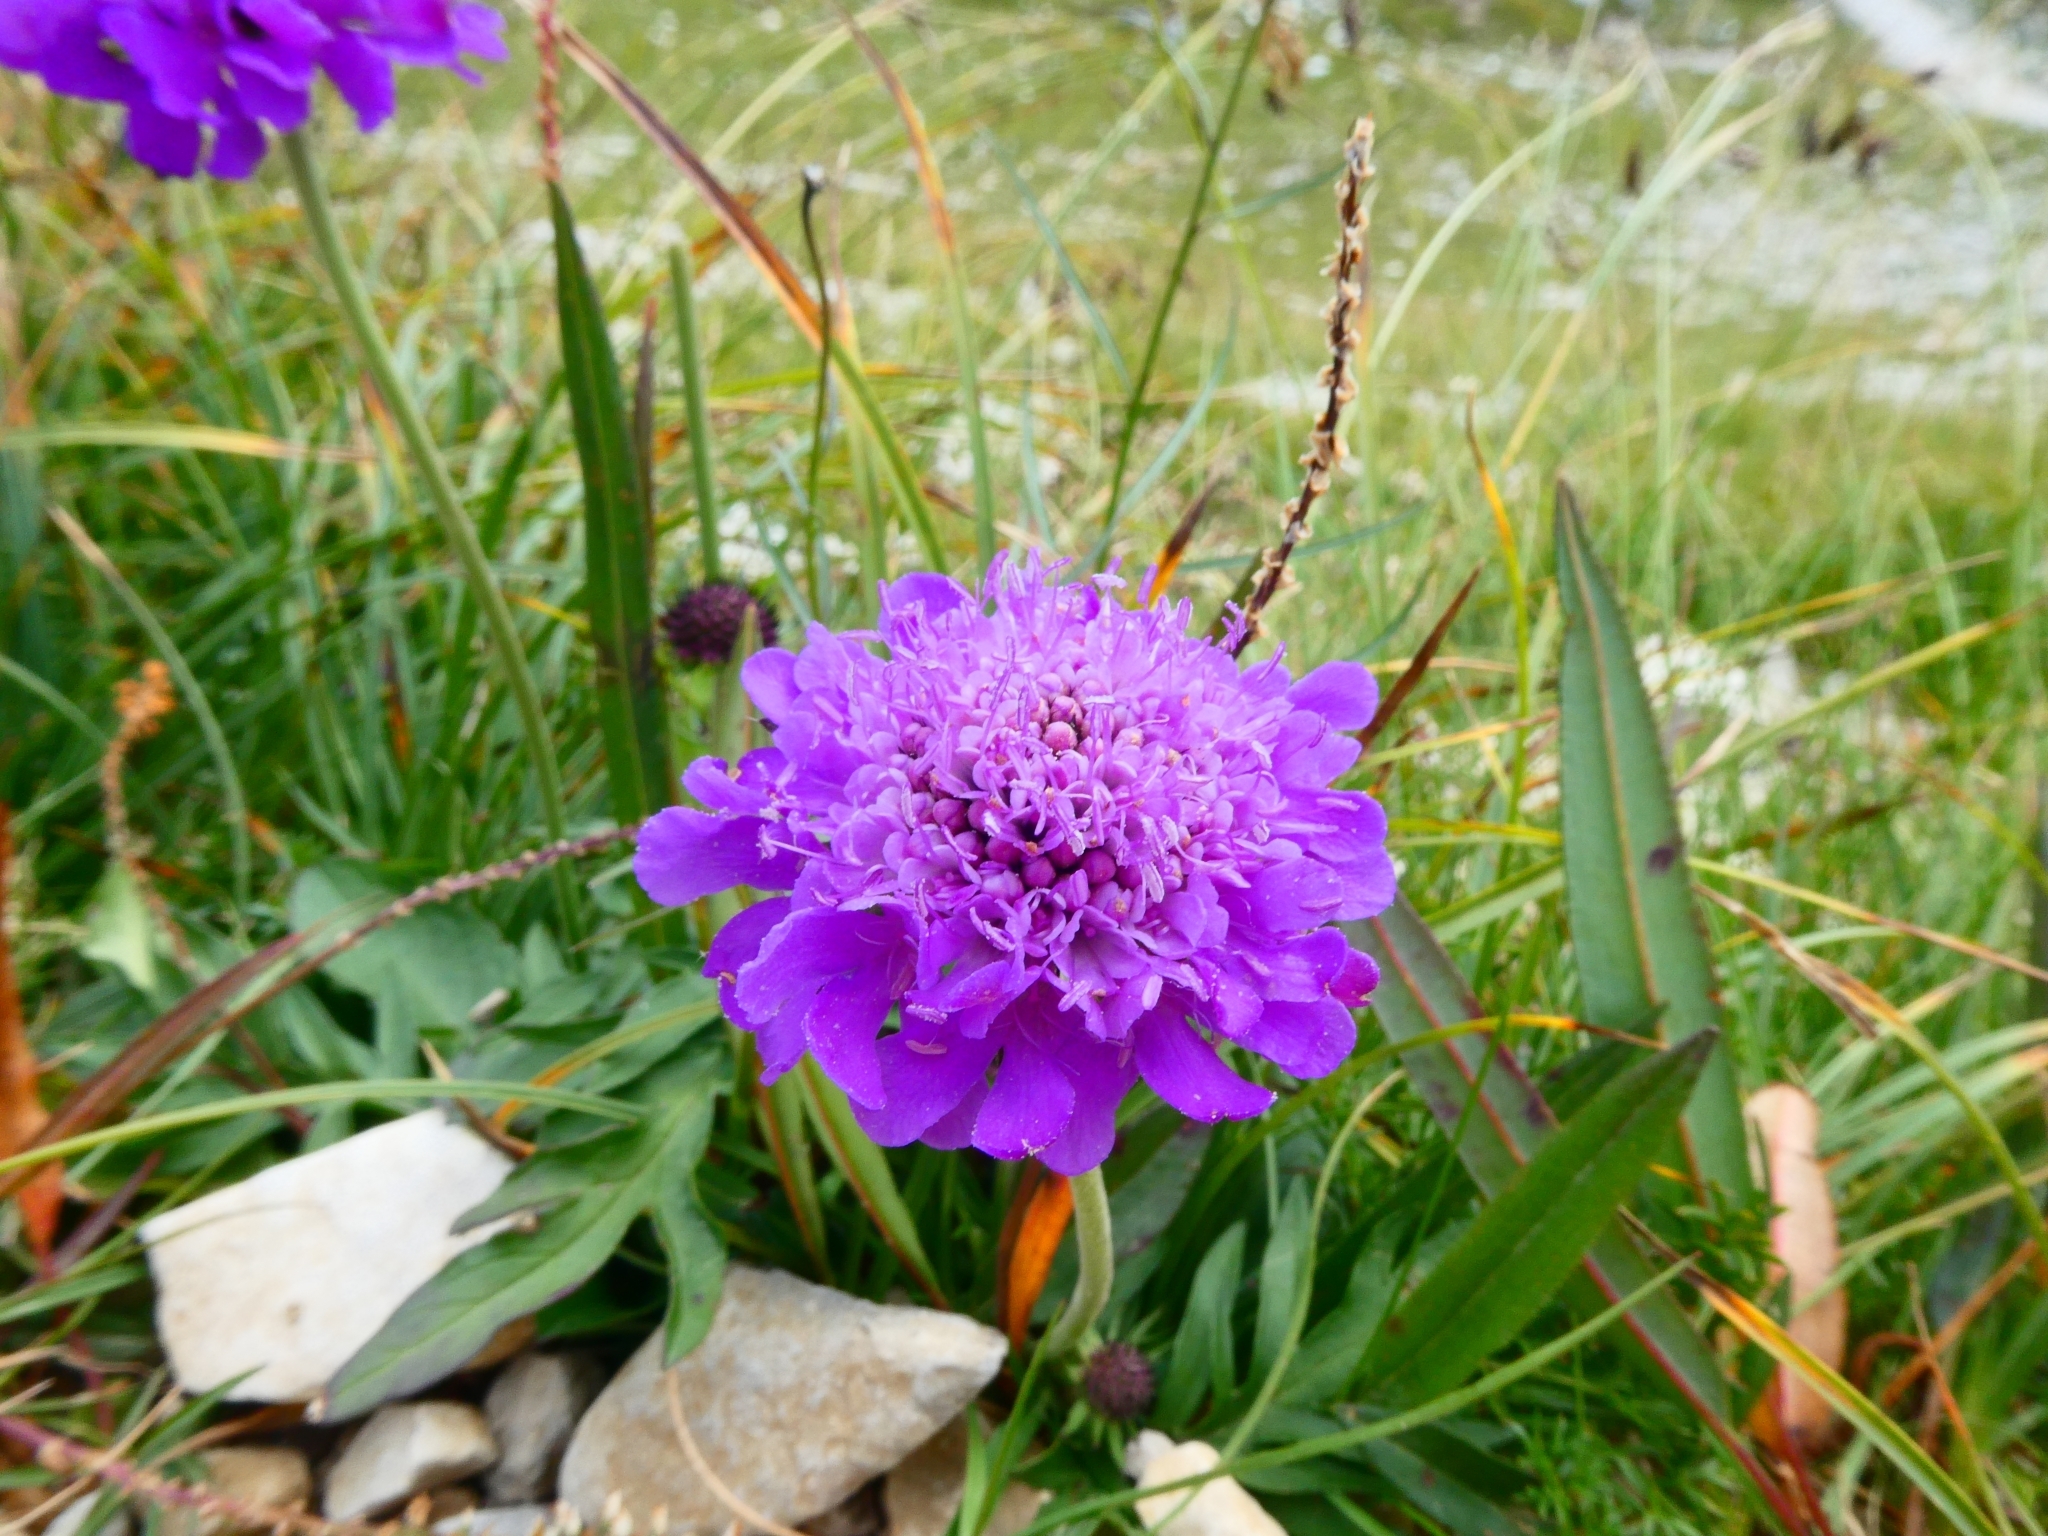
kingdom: Plantae
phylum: Tracheophyta
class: Magnoliopsida
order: Dipsacales
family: Caprifoliaceae
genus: Scabiosa
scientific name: Scabiosa lucida
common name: Shining scabious
